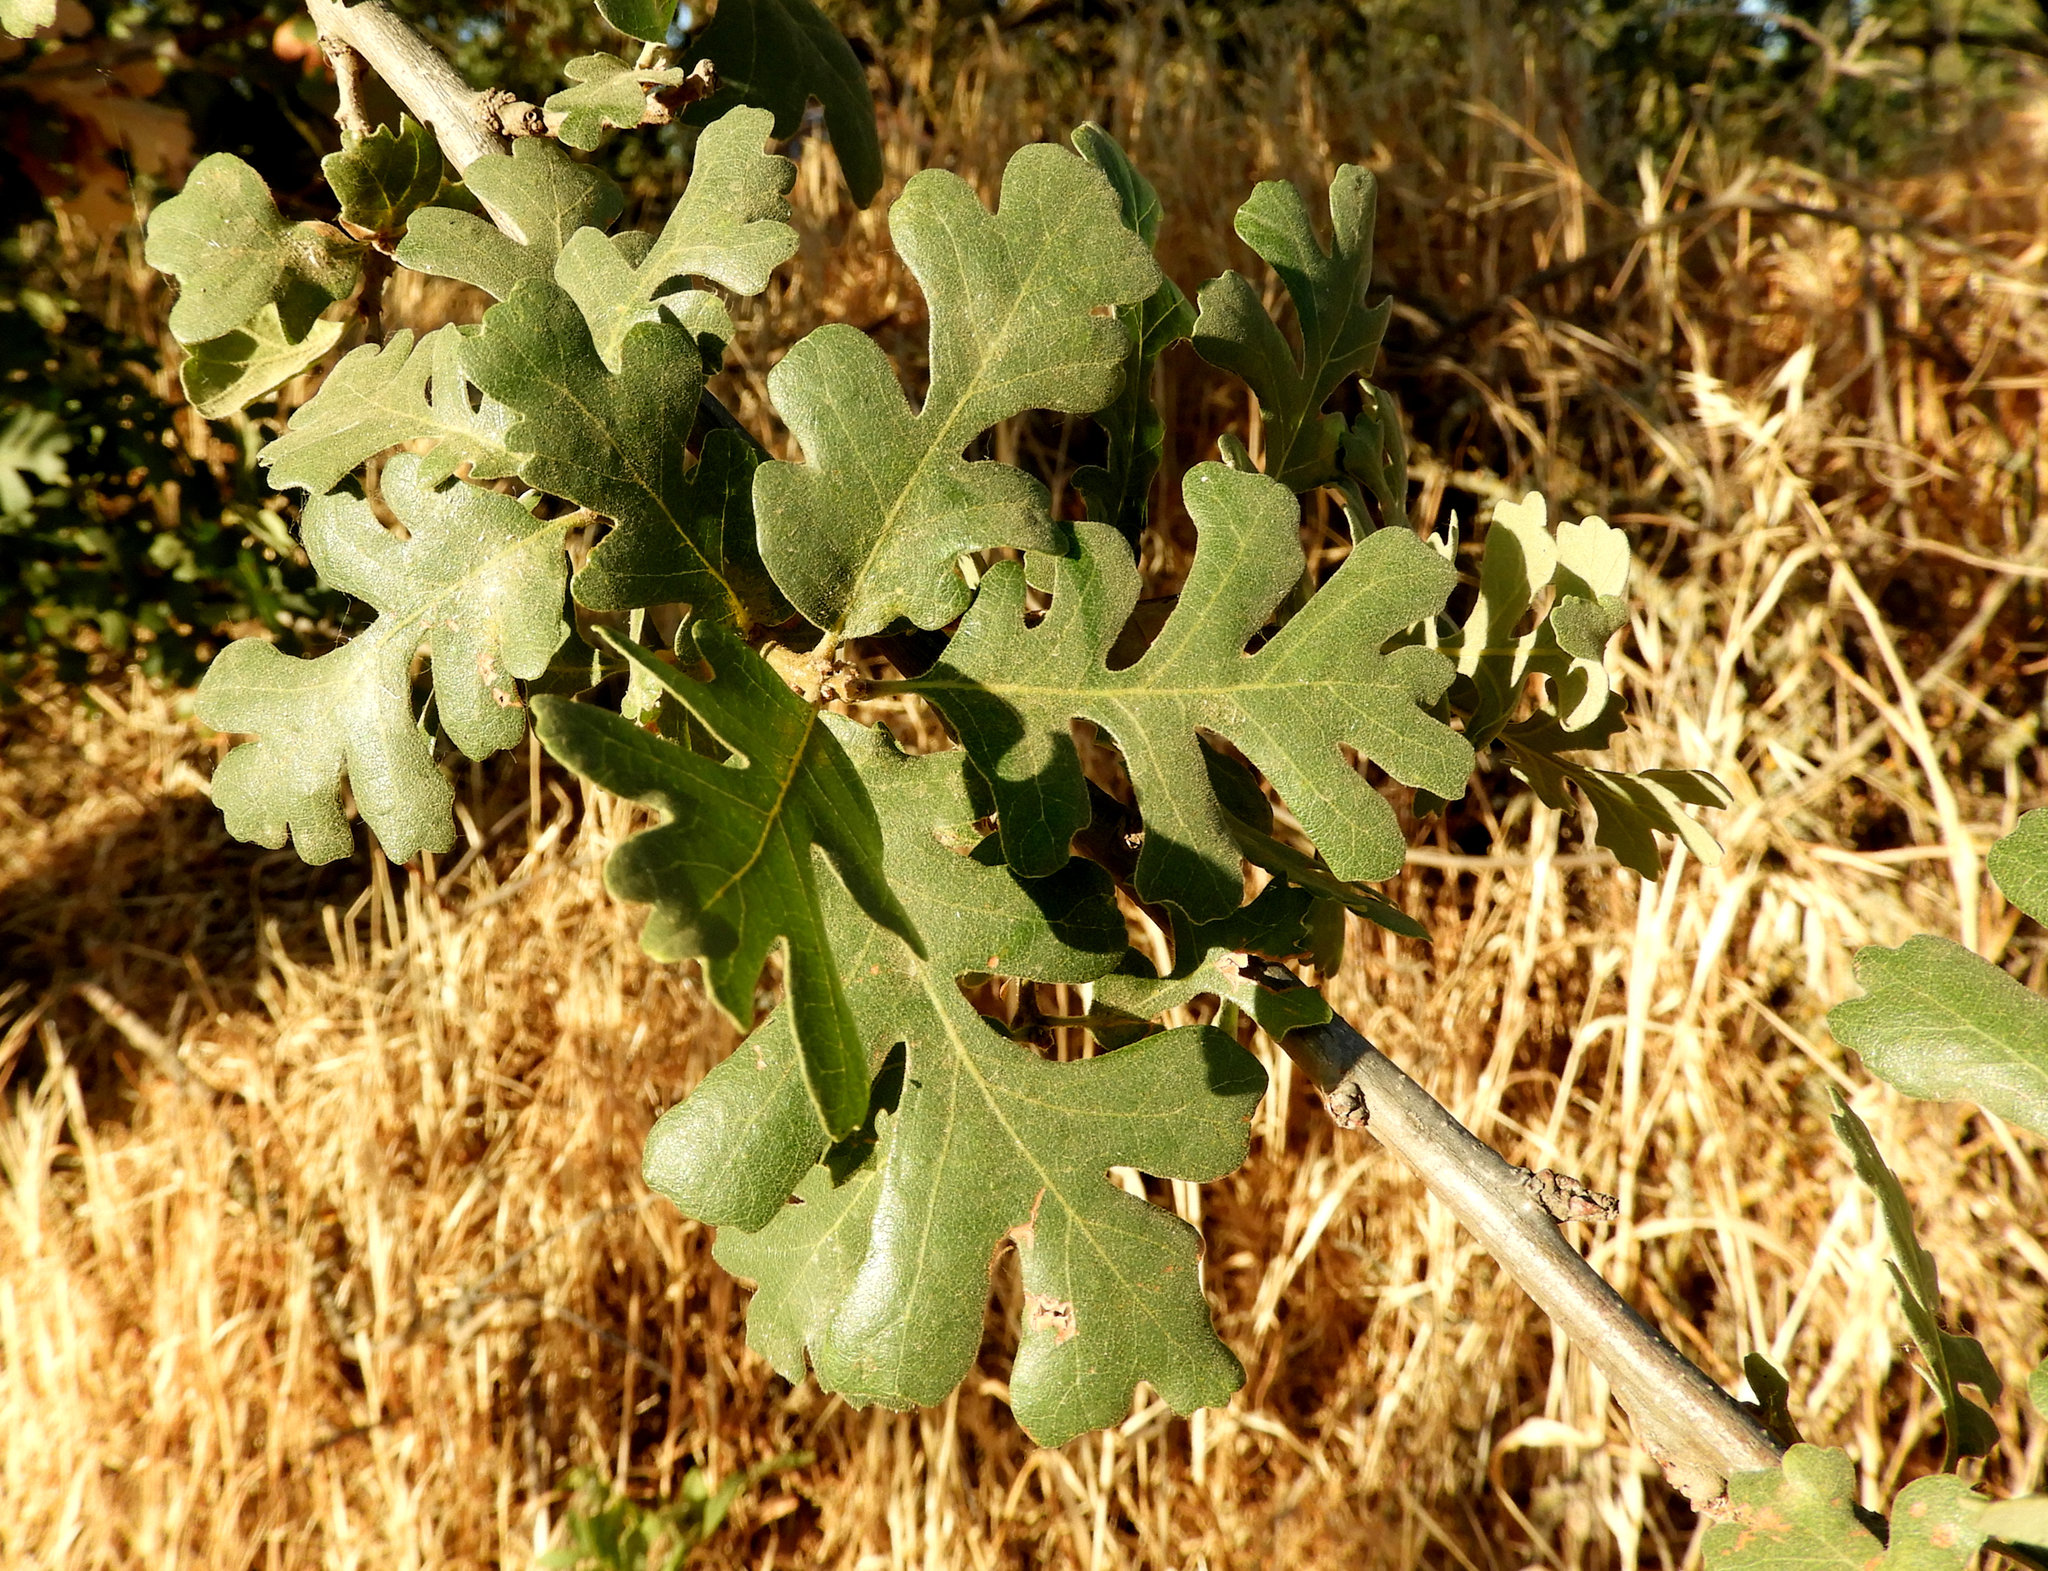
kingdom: Plantae
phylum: Tracheophyta
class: Magnoliopsida
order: Fagales
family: Fagaceae
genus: Quercus
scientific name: Quercus lobata
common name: Valley oak
